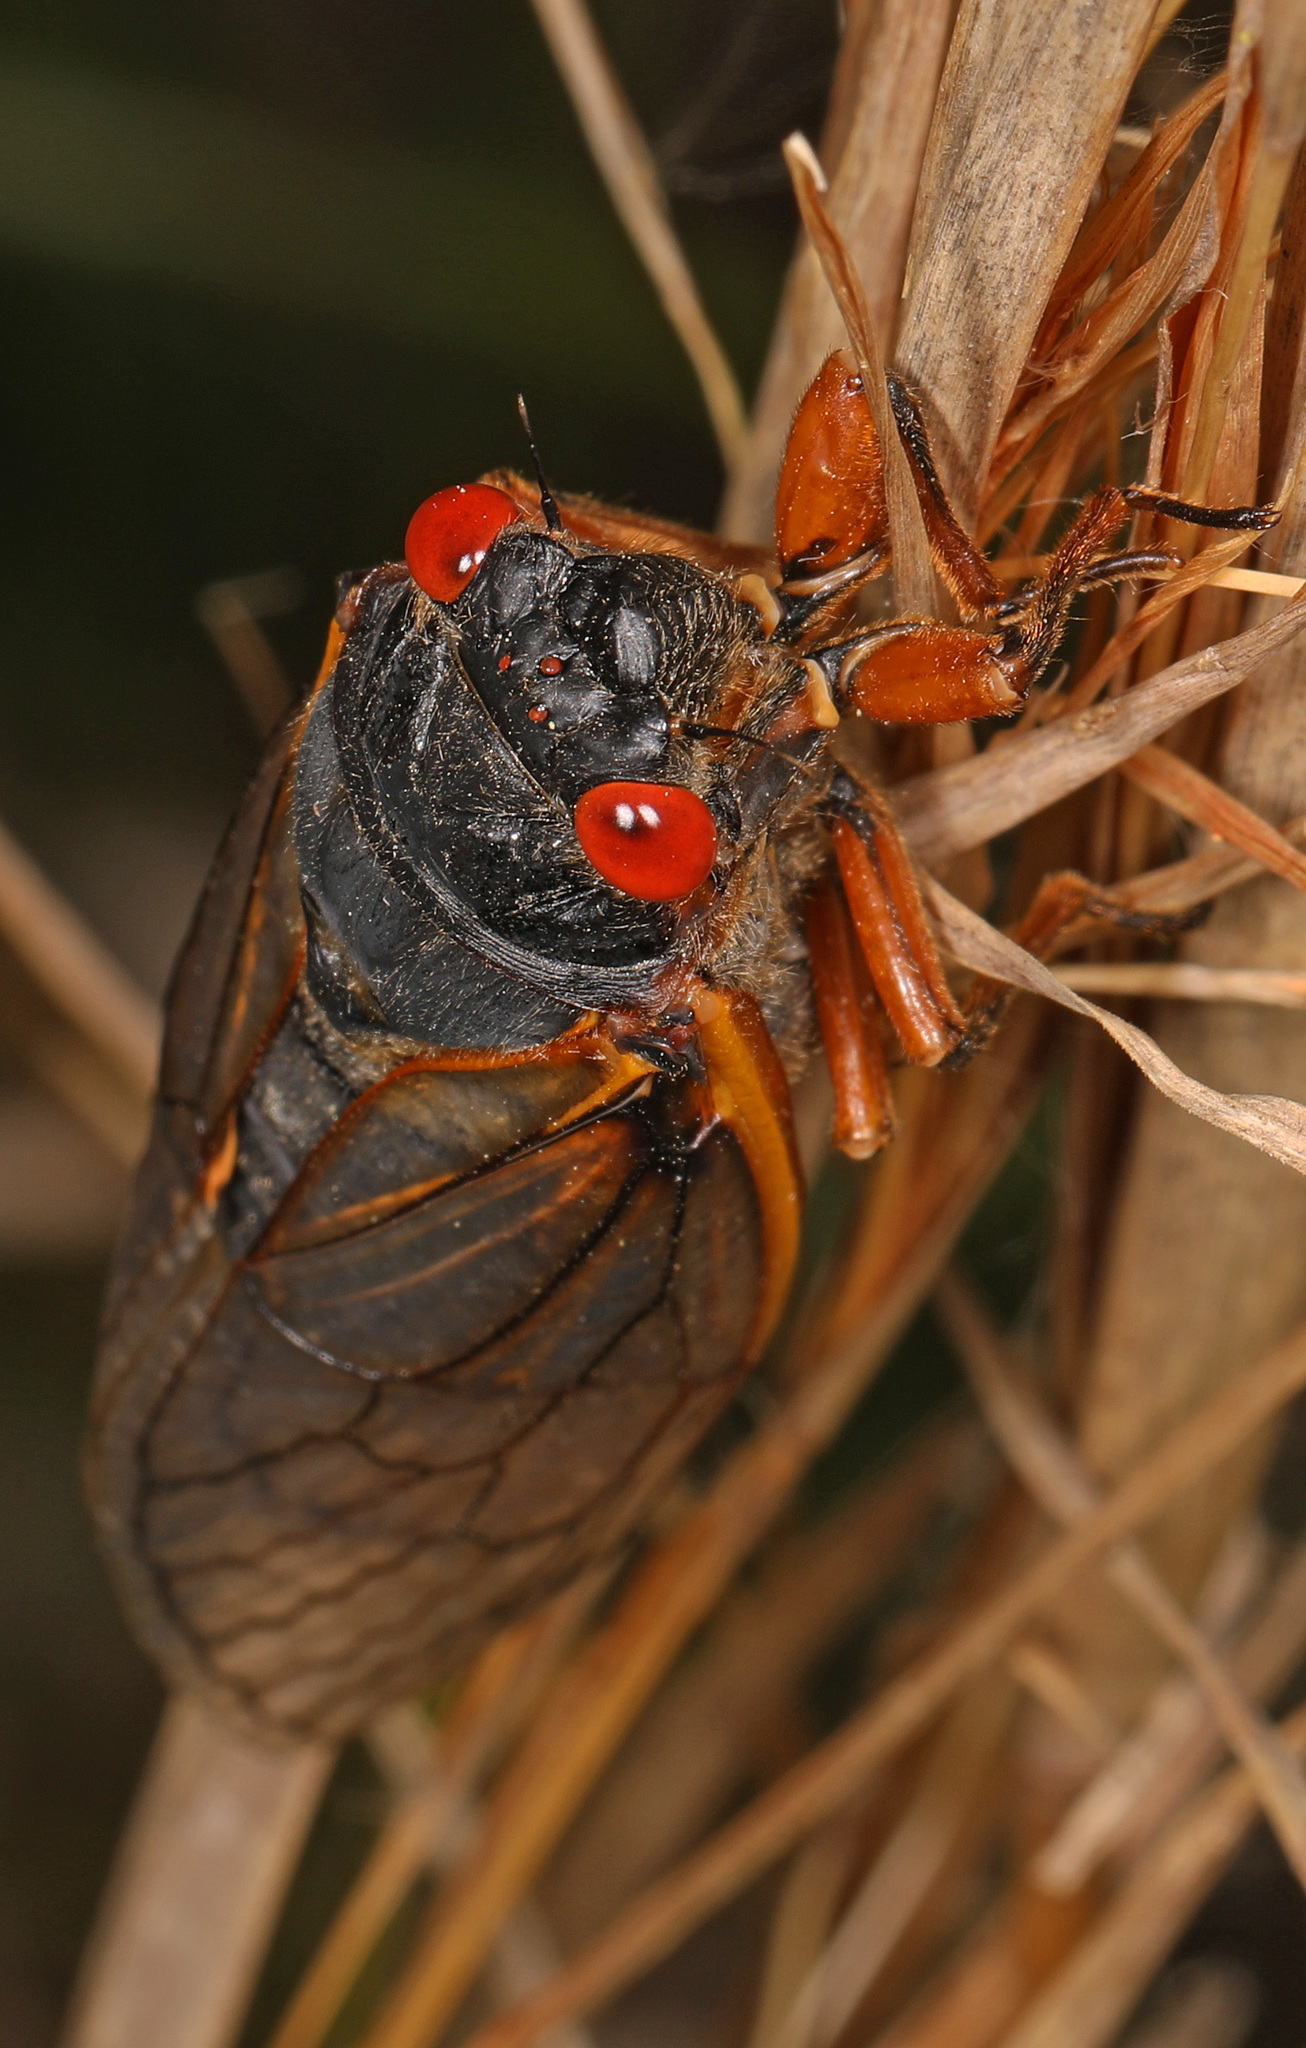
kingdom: Animalia
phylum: Arthropoda
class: Insecta
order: Hemiptera
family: Cicadidae
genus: Magicicada
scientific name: Magicicada septendecim
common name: Periodical cicada
